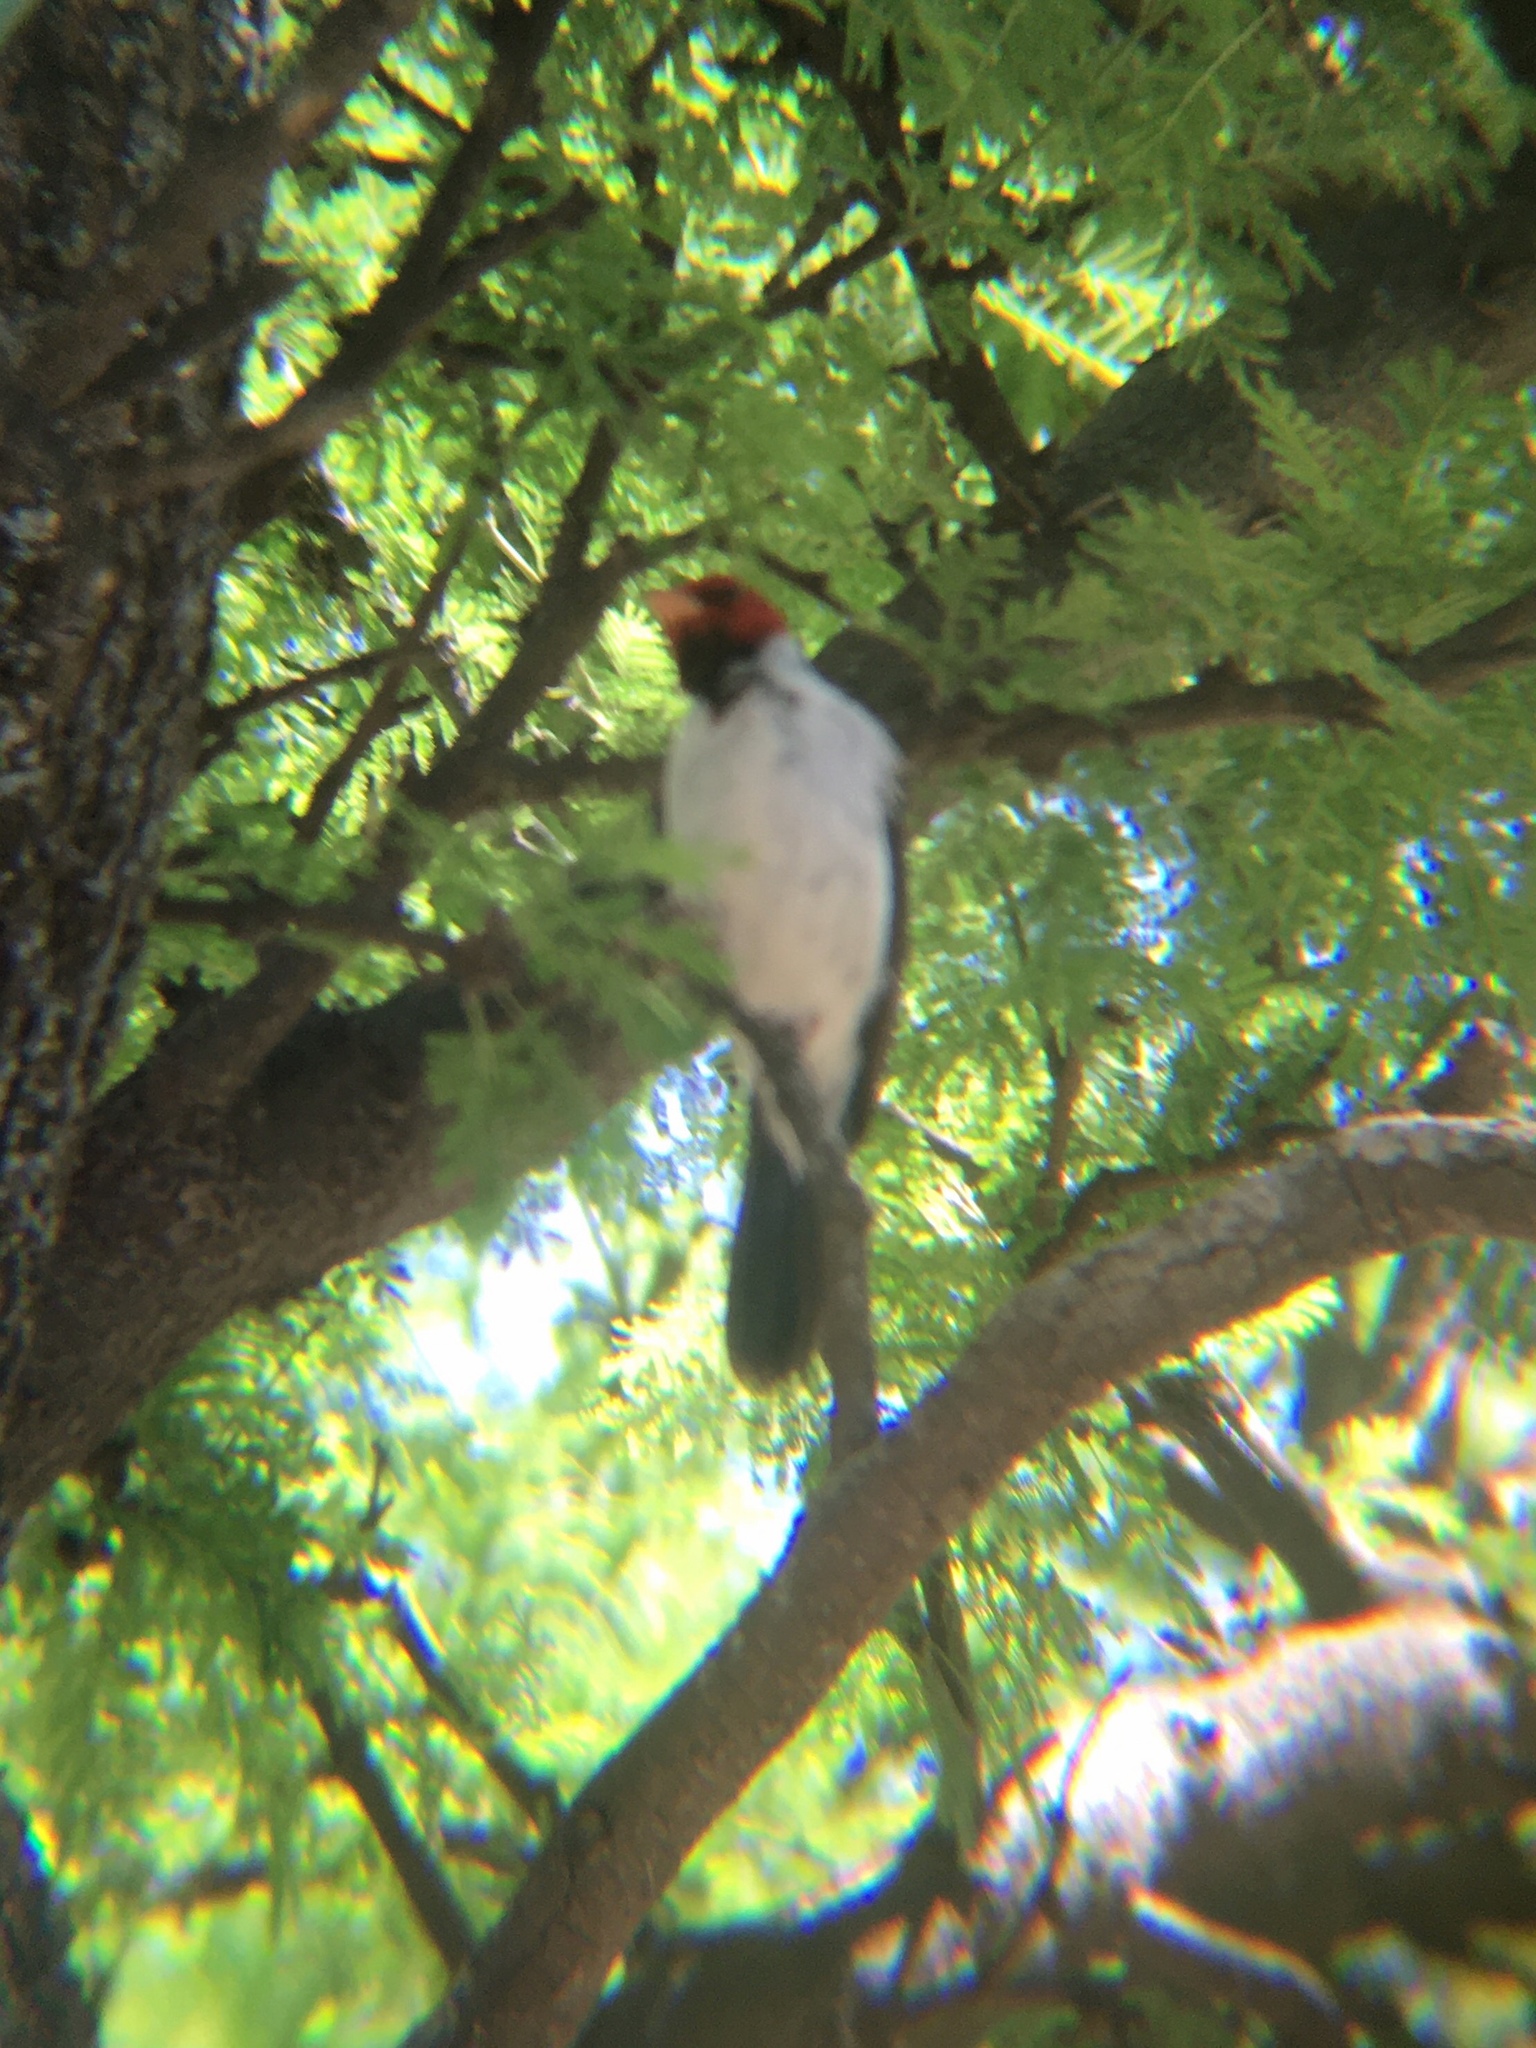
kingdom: Animalia
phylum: Chordata
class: Aves
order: Passeriformes
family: Thraupidae
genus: Paroaria
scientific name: Paroaria capitata
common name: Yellow-billed cardinal
